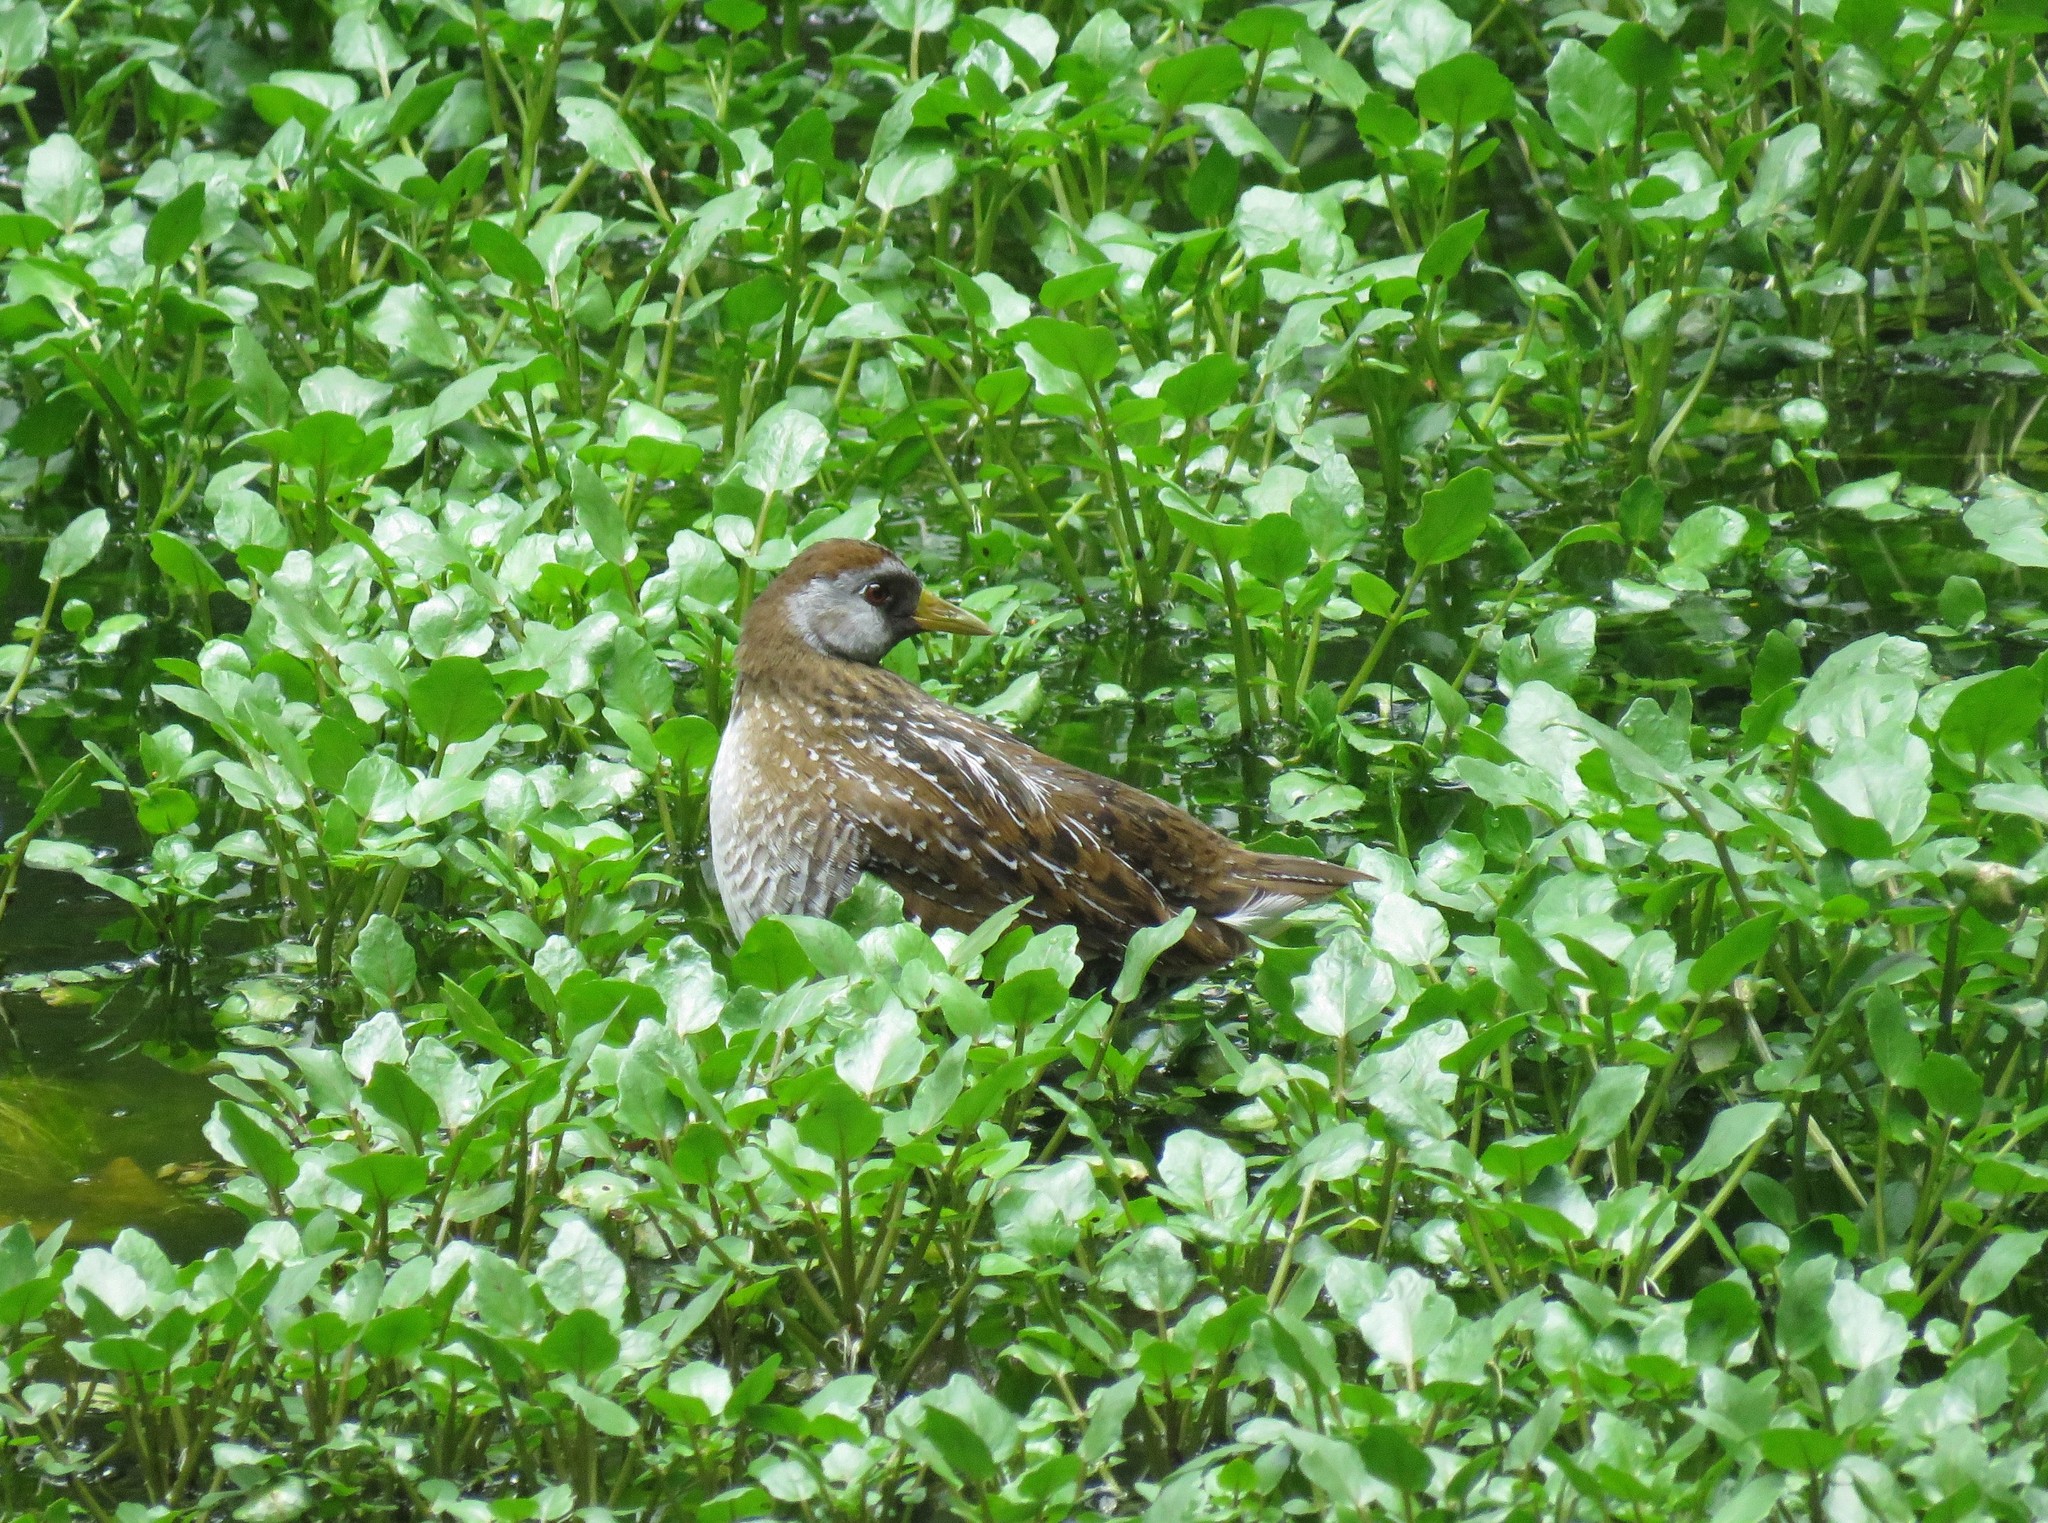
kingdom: Animalia
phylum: Chordata
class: Aves
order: Gruiformes
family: Rallidae
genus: Porzana
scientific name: Porzana carolina
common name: Sora
